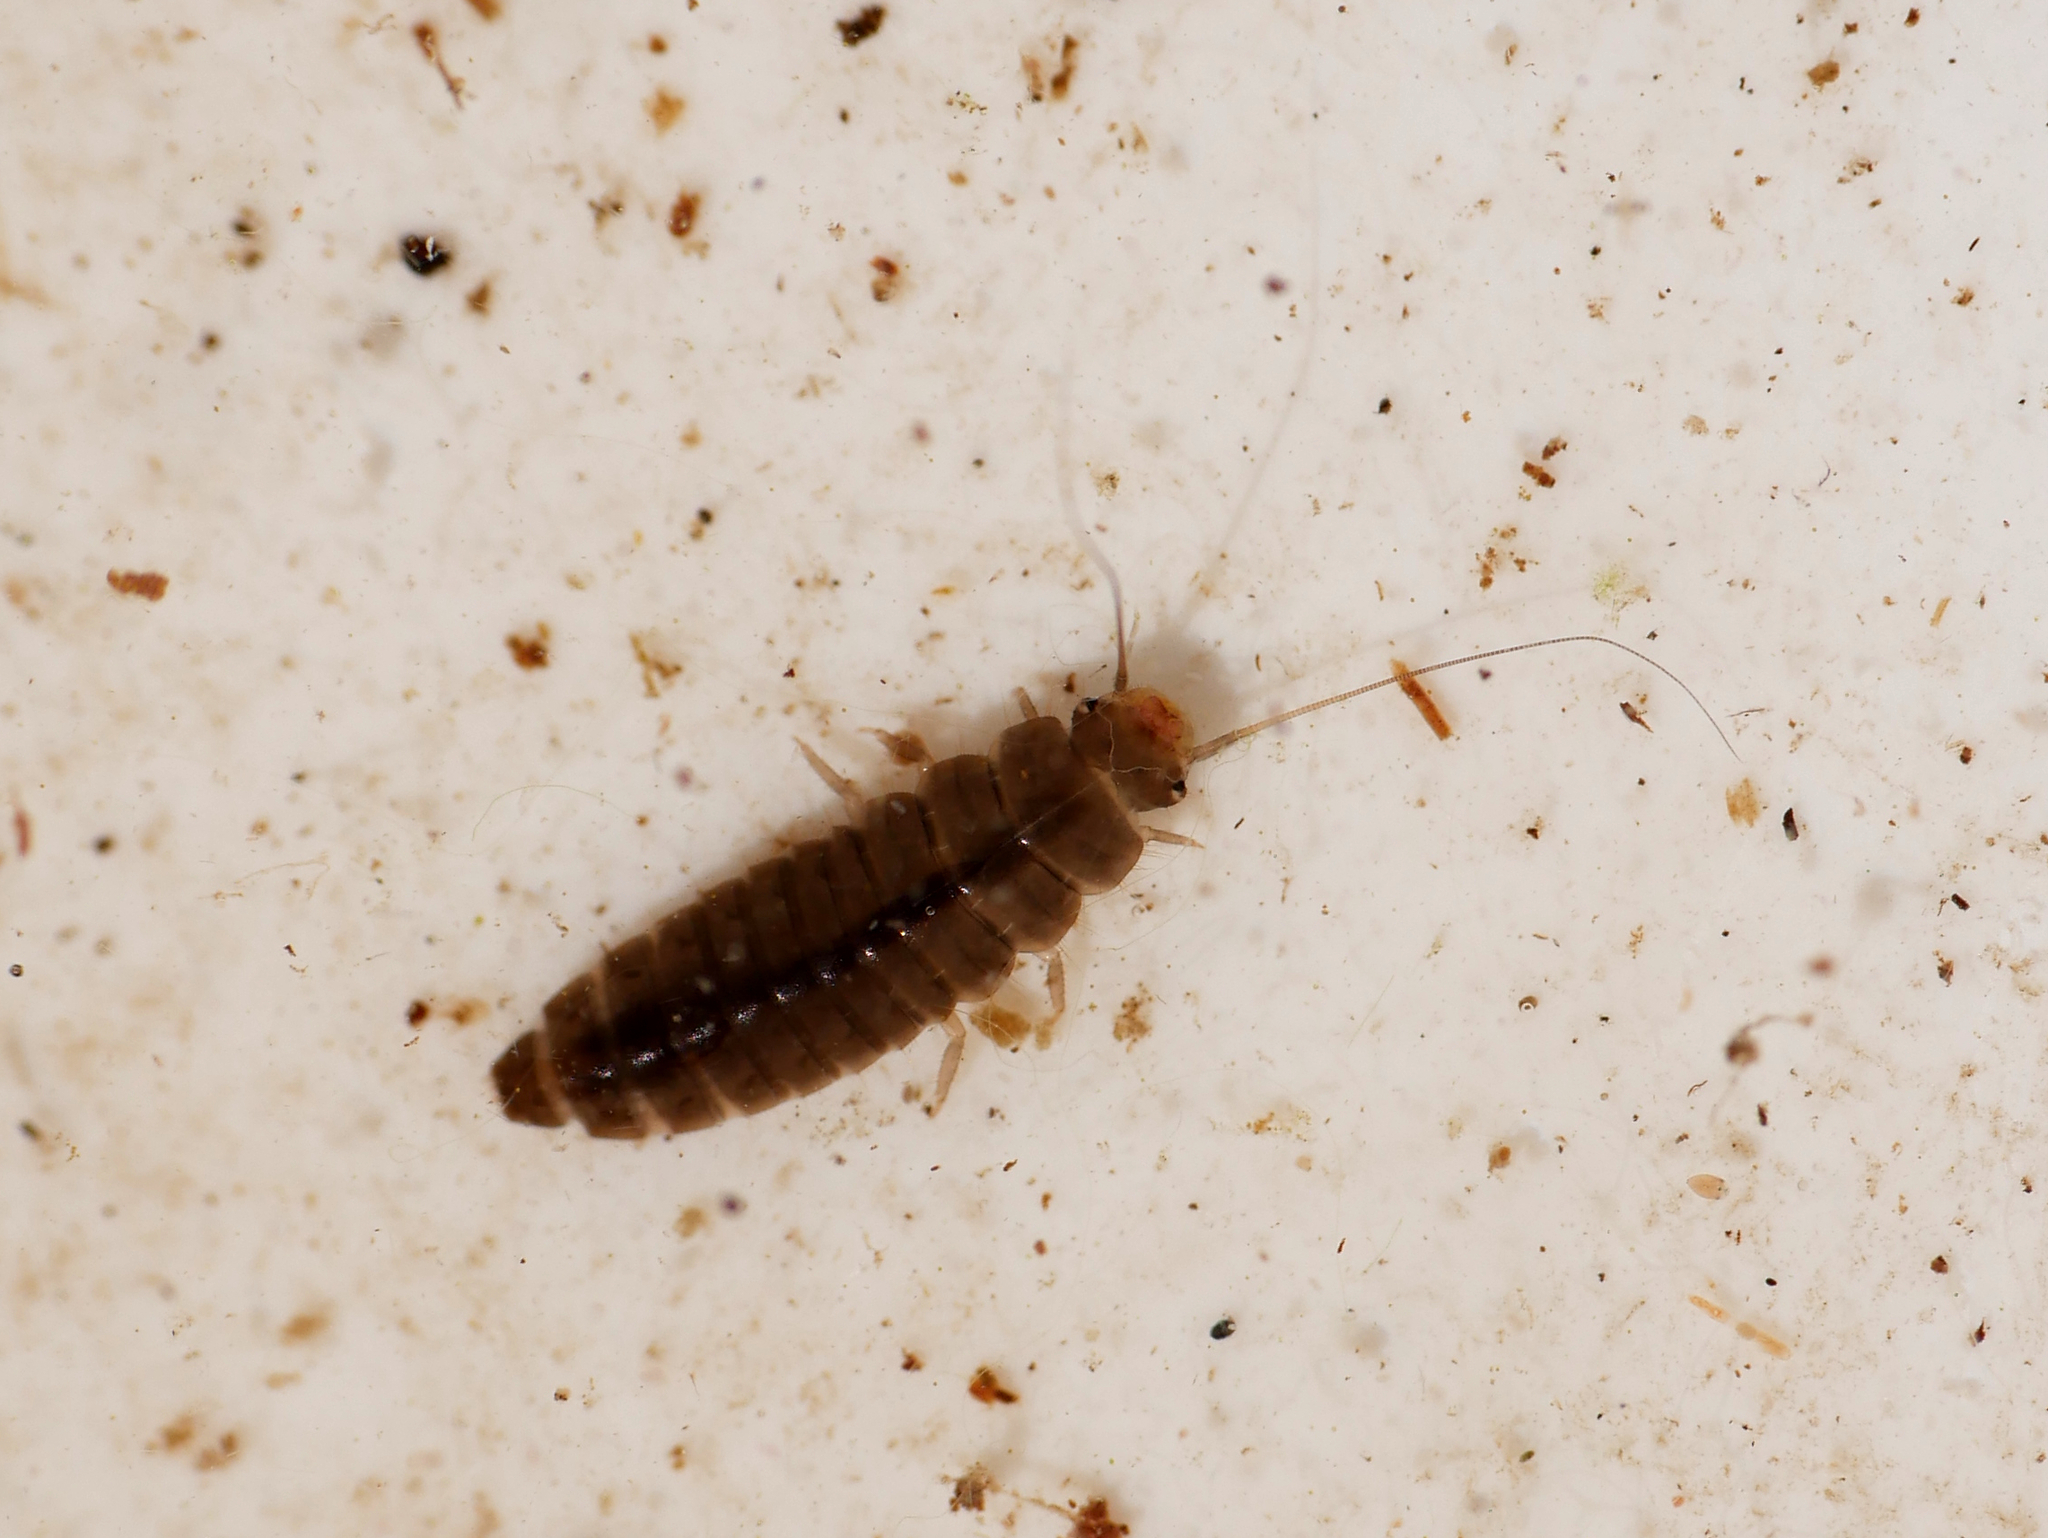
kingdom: Animalia
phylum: Arthropoda
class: Insecta
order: Coleoptera
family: Scirtidae
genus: Microcara
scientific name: Microcara testacea
